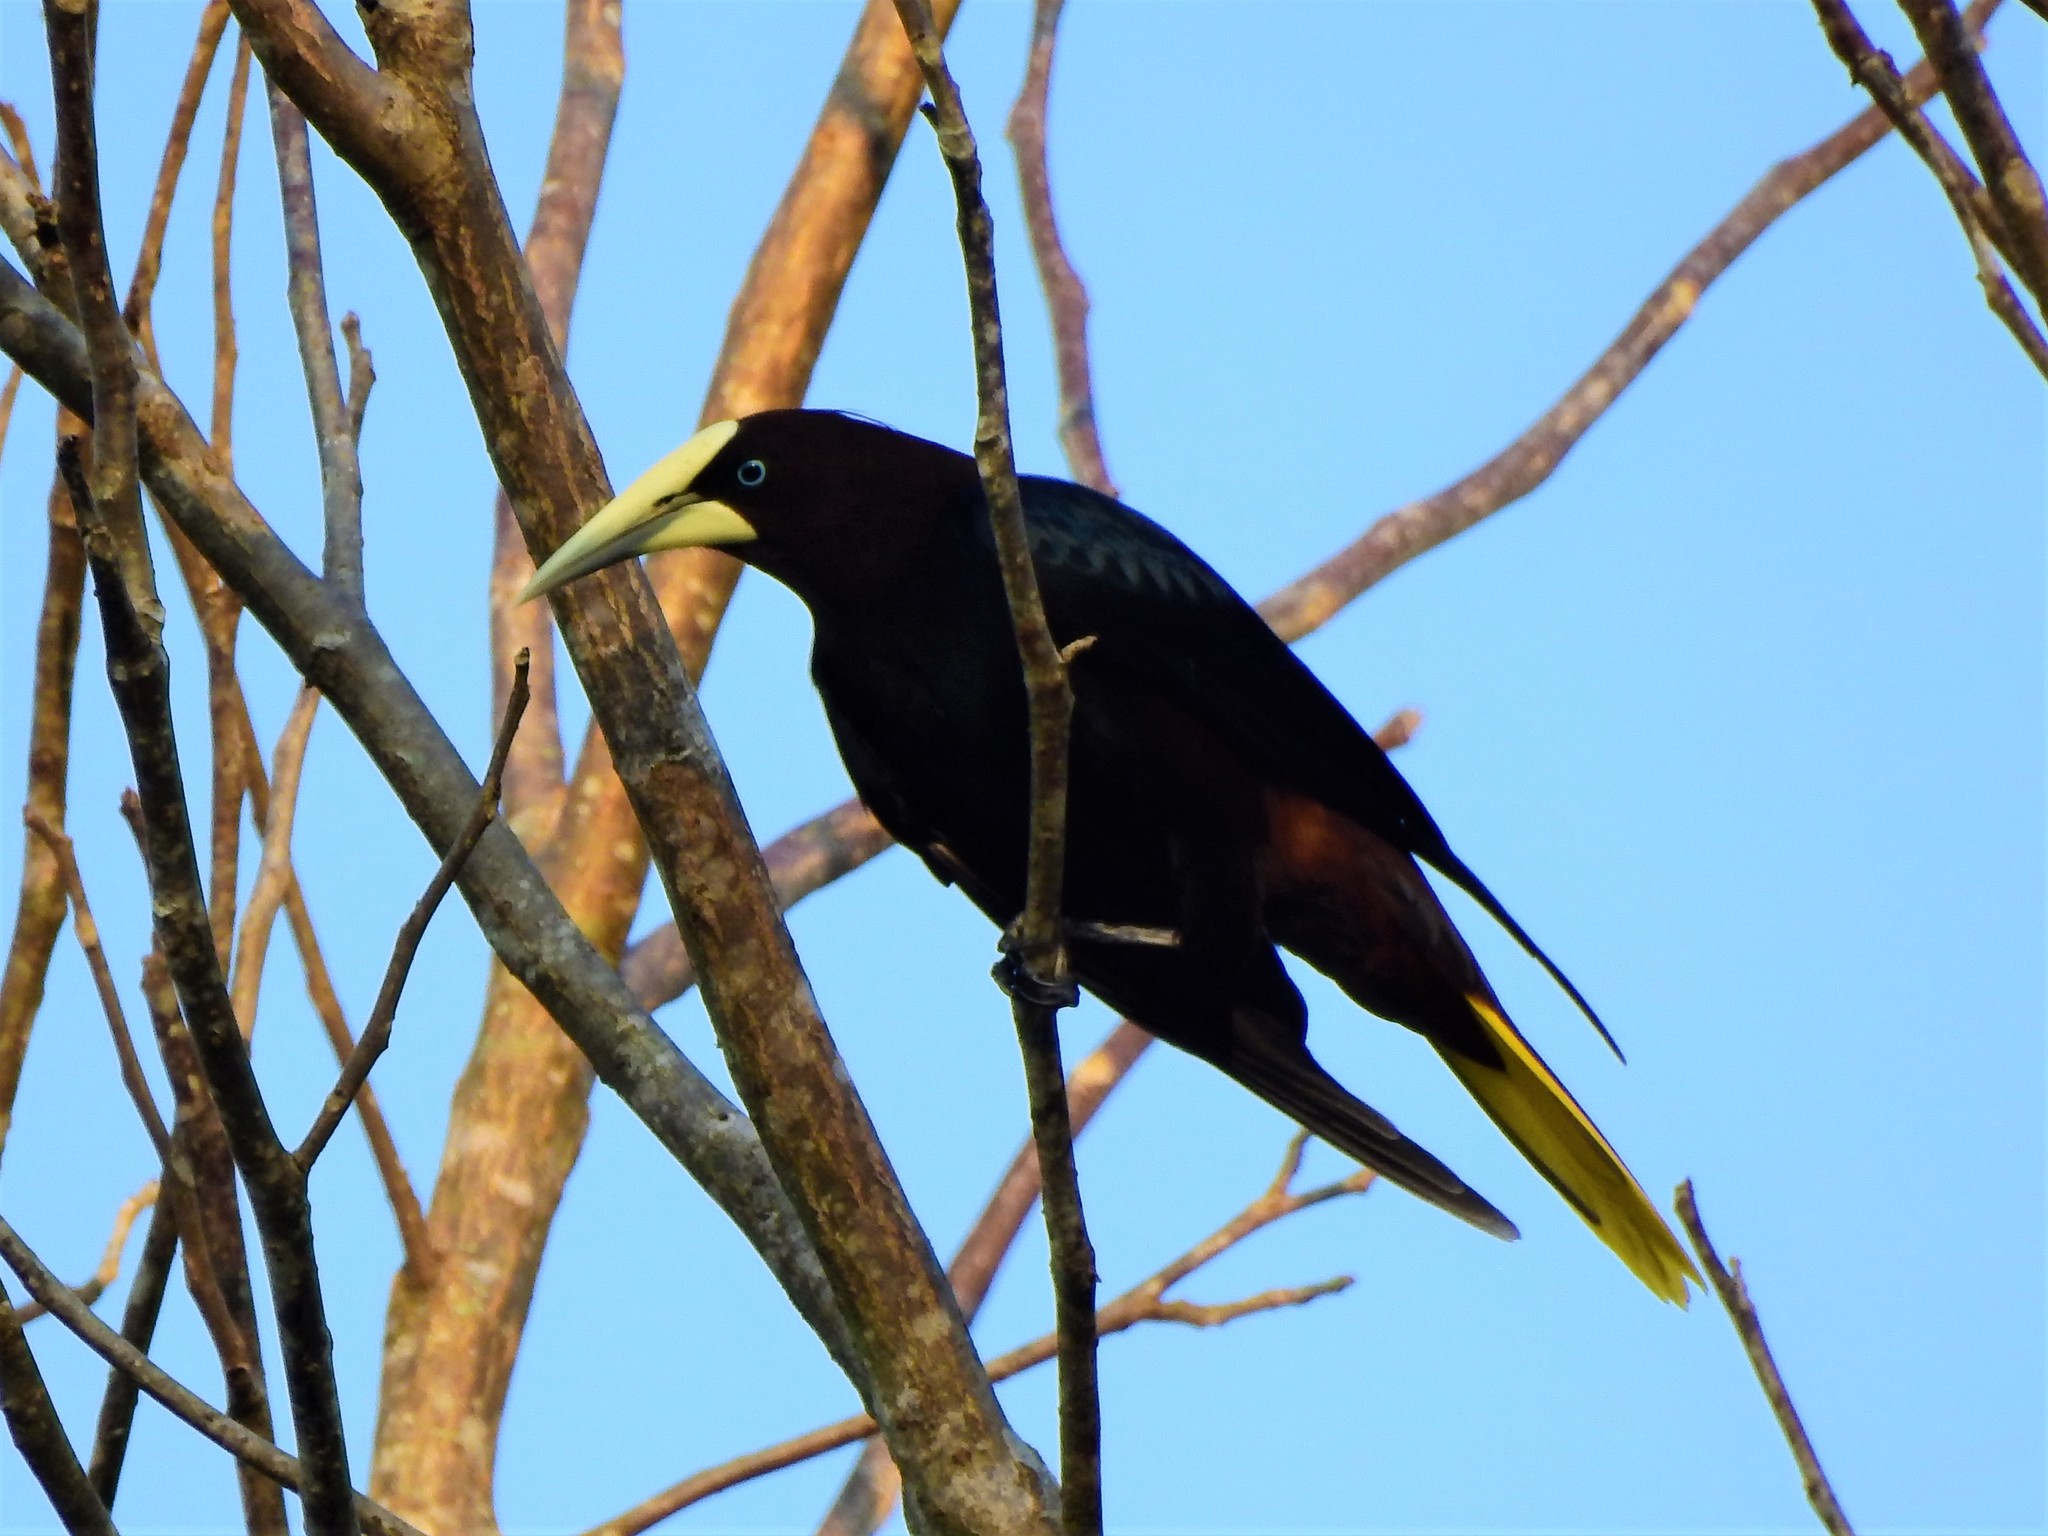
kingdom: Animalia
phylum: Chordata
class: Aves
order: Passeriformes
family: Icteridae
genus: Psarocolius
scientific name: Psarocolius wagleri
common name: Chestnut-headed oropendola
